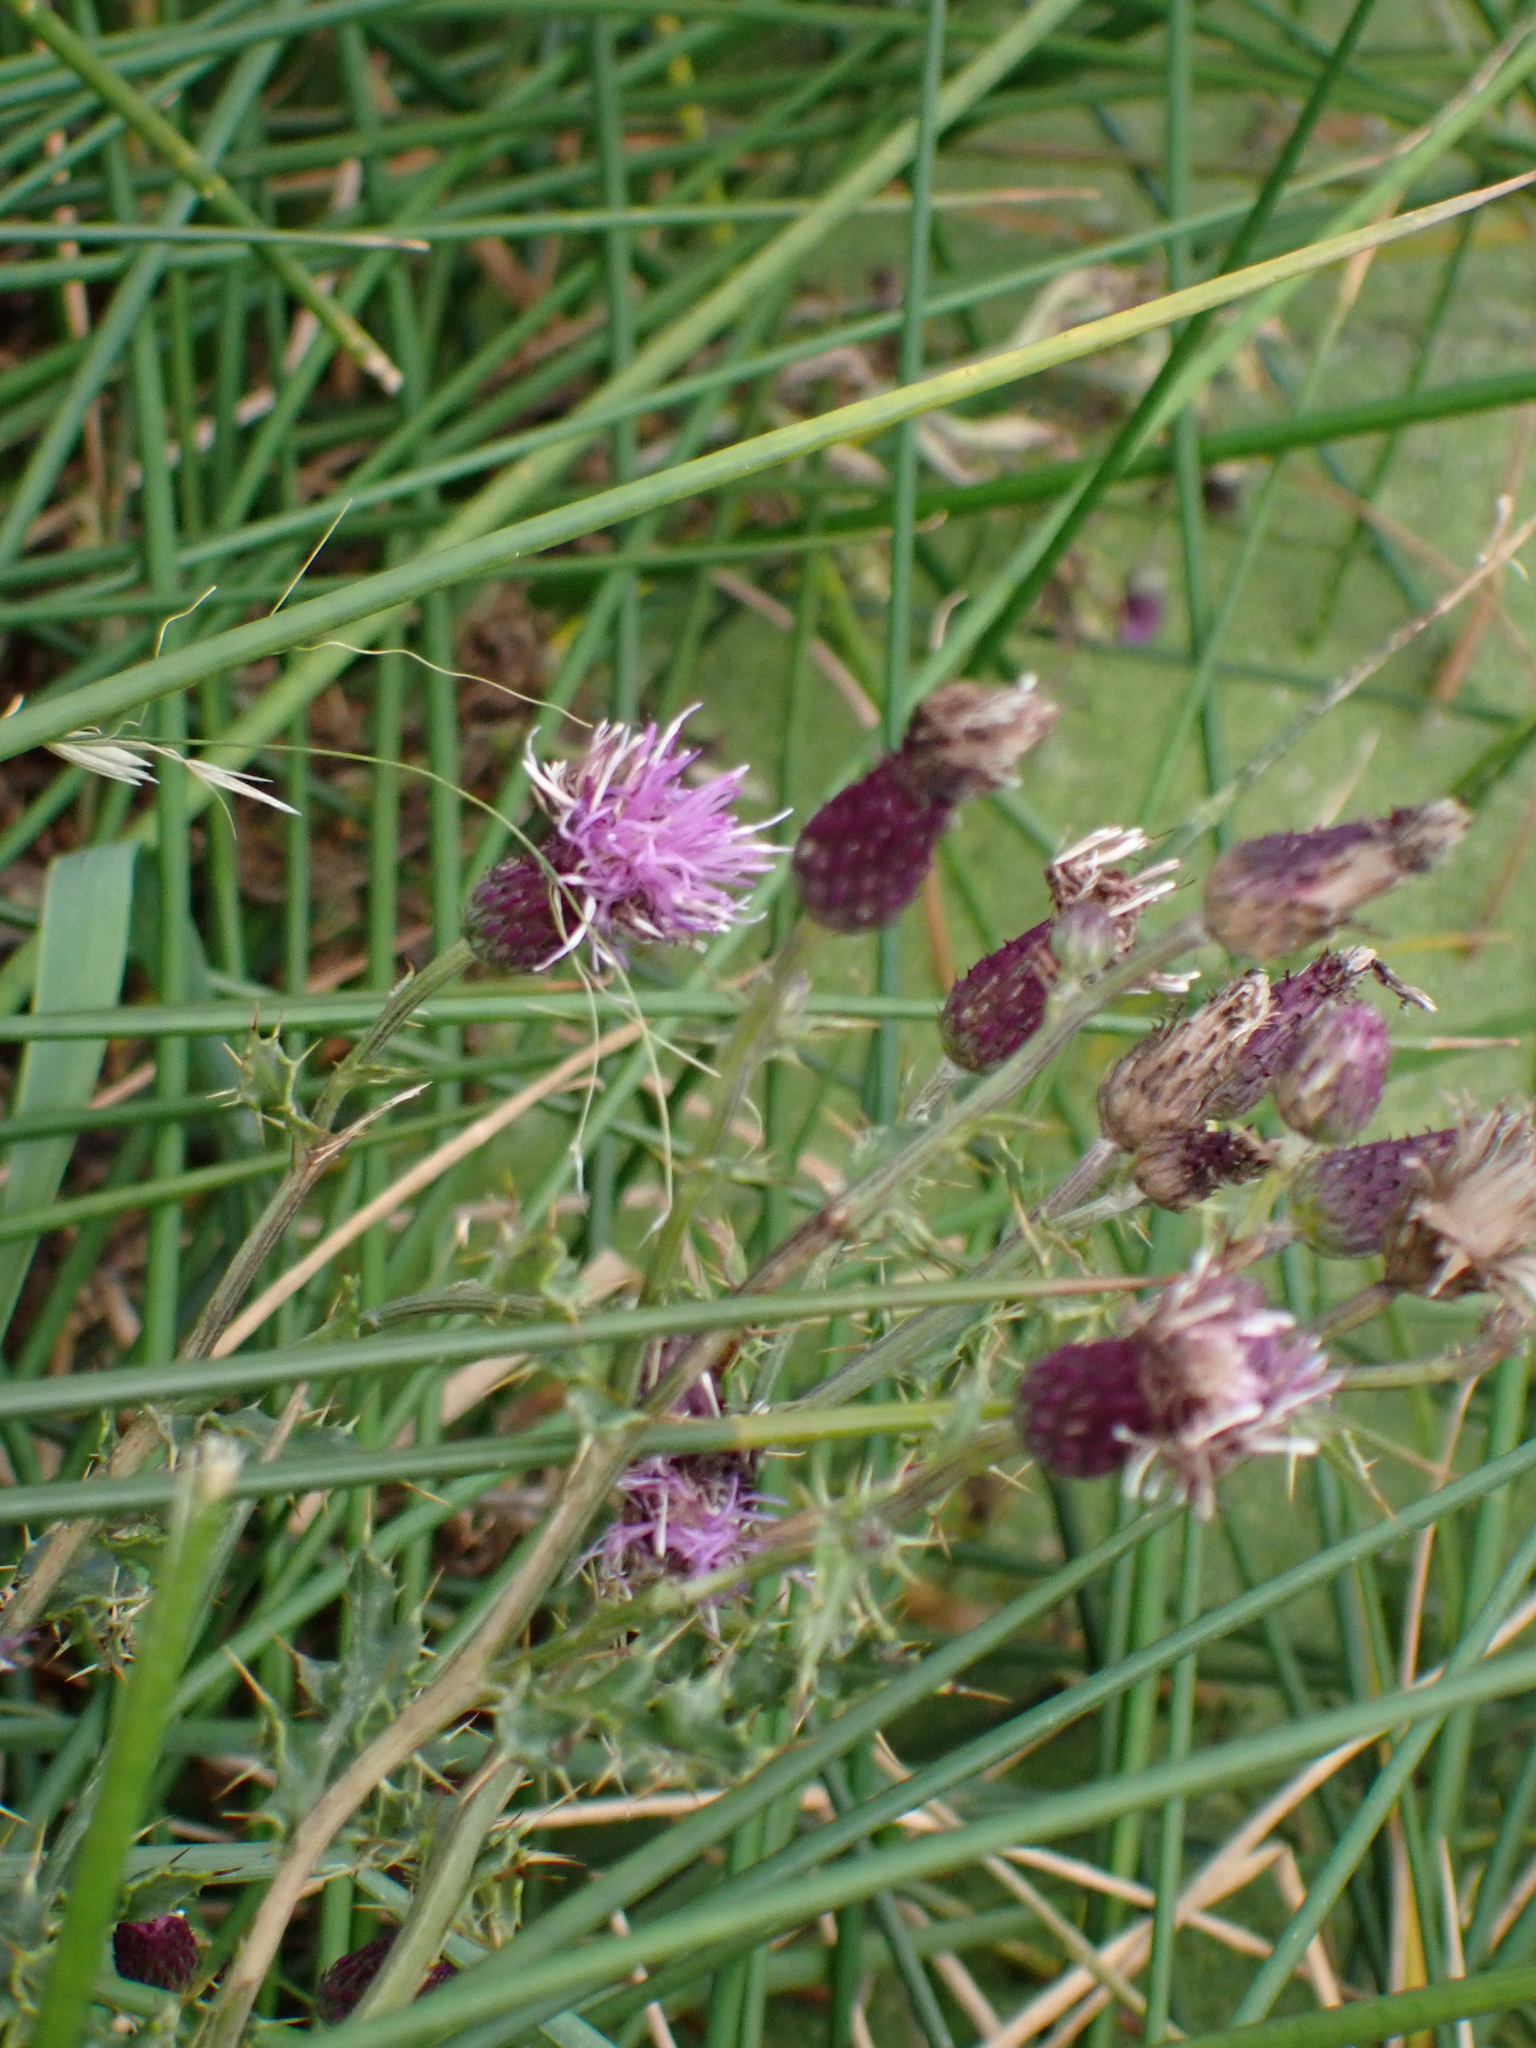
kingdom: Plantae
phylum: Tracheophyta
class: Magnoliopsida
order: Asterales
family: Asteraceae
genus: Cirsium
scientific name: Cirsium arvense
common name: Creeping thistle
